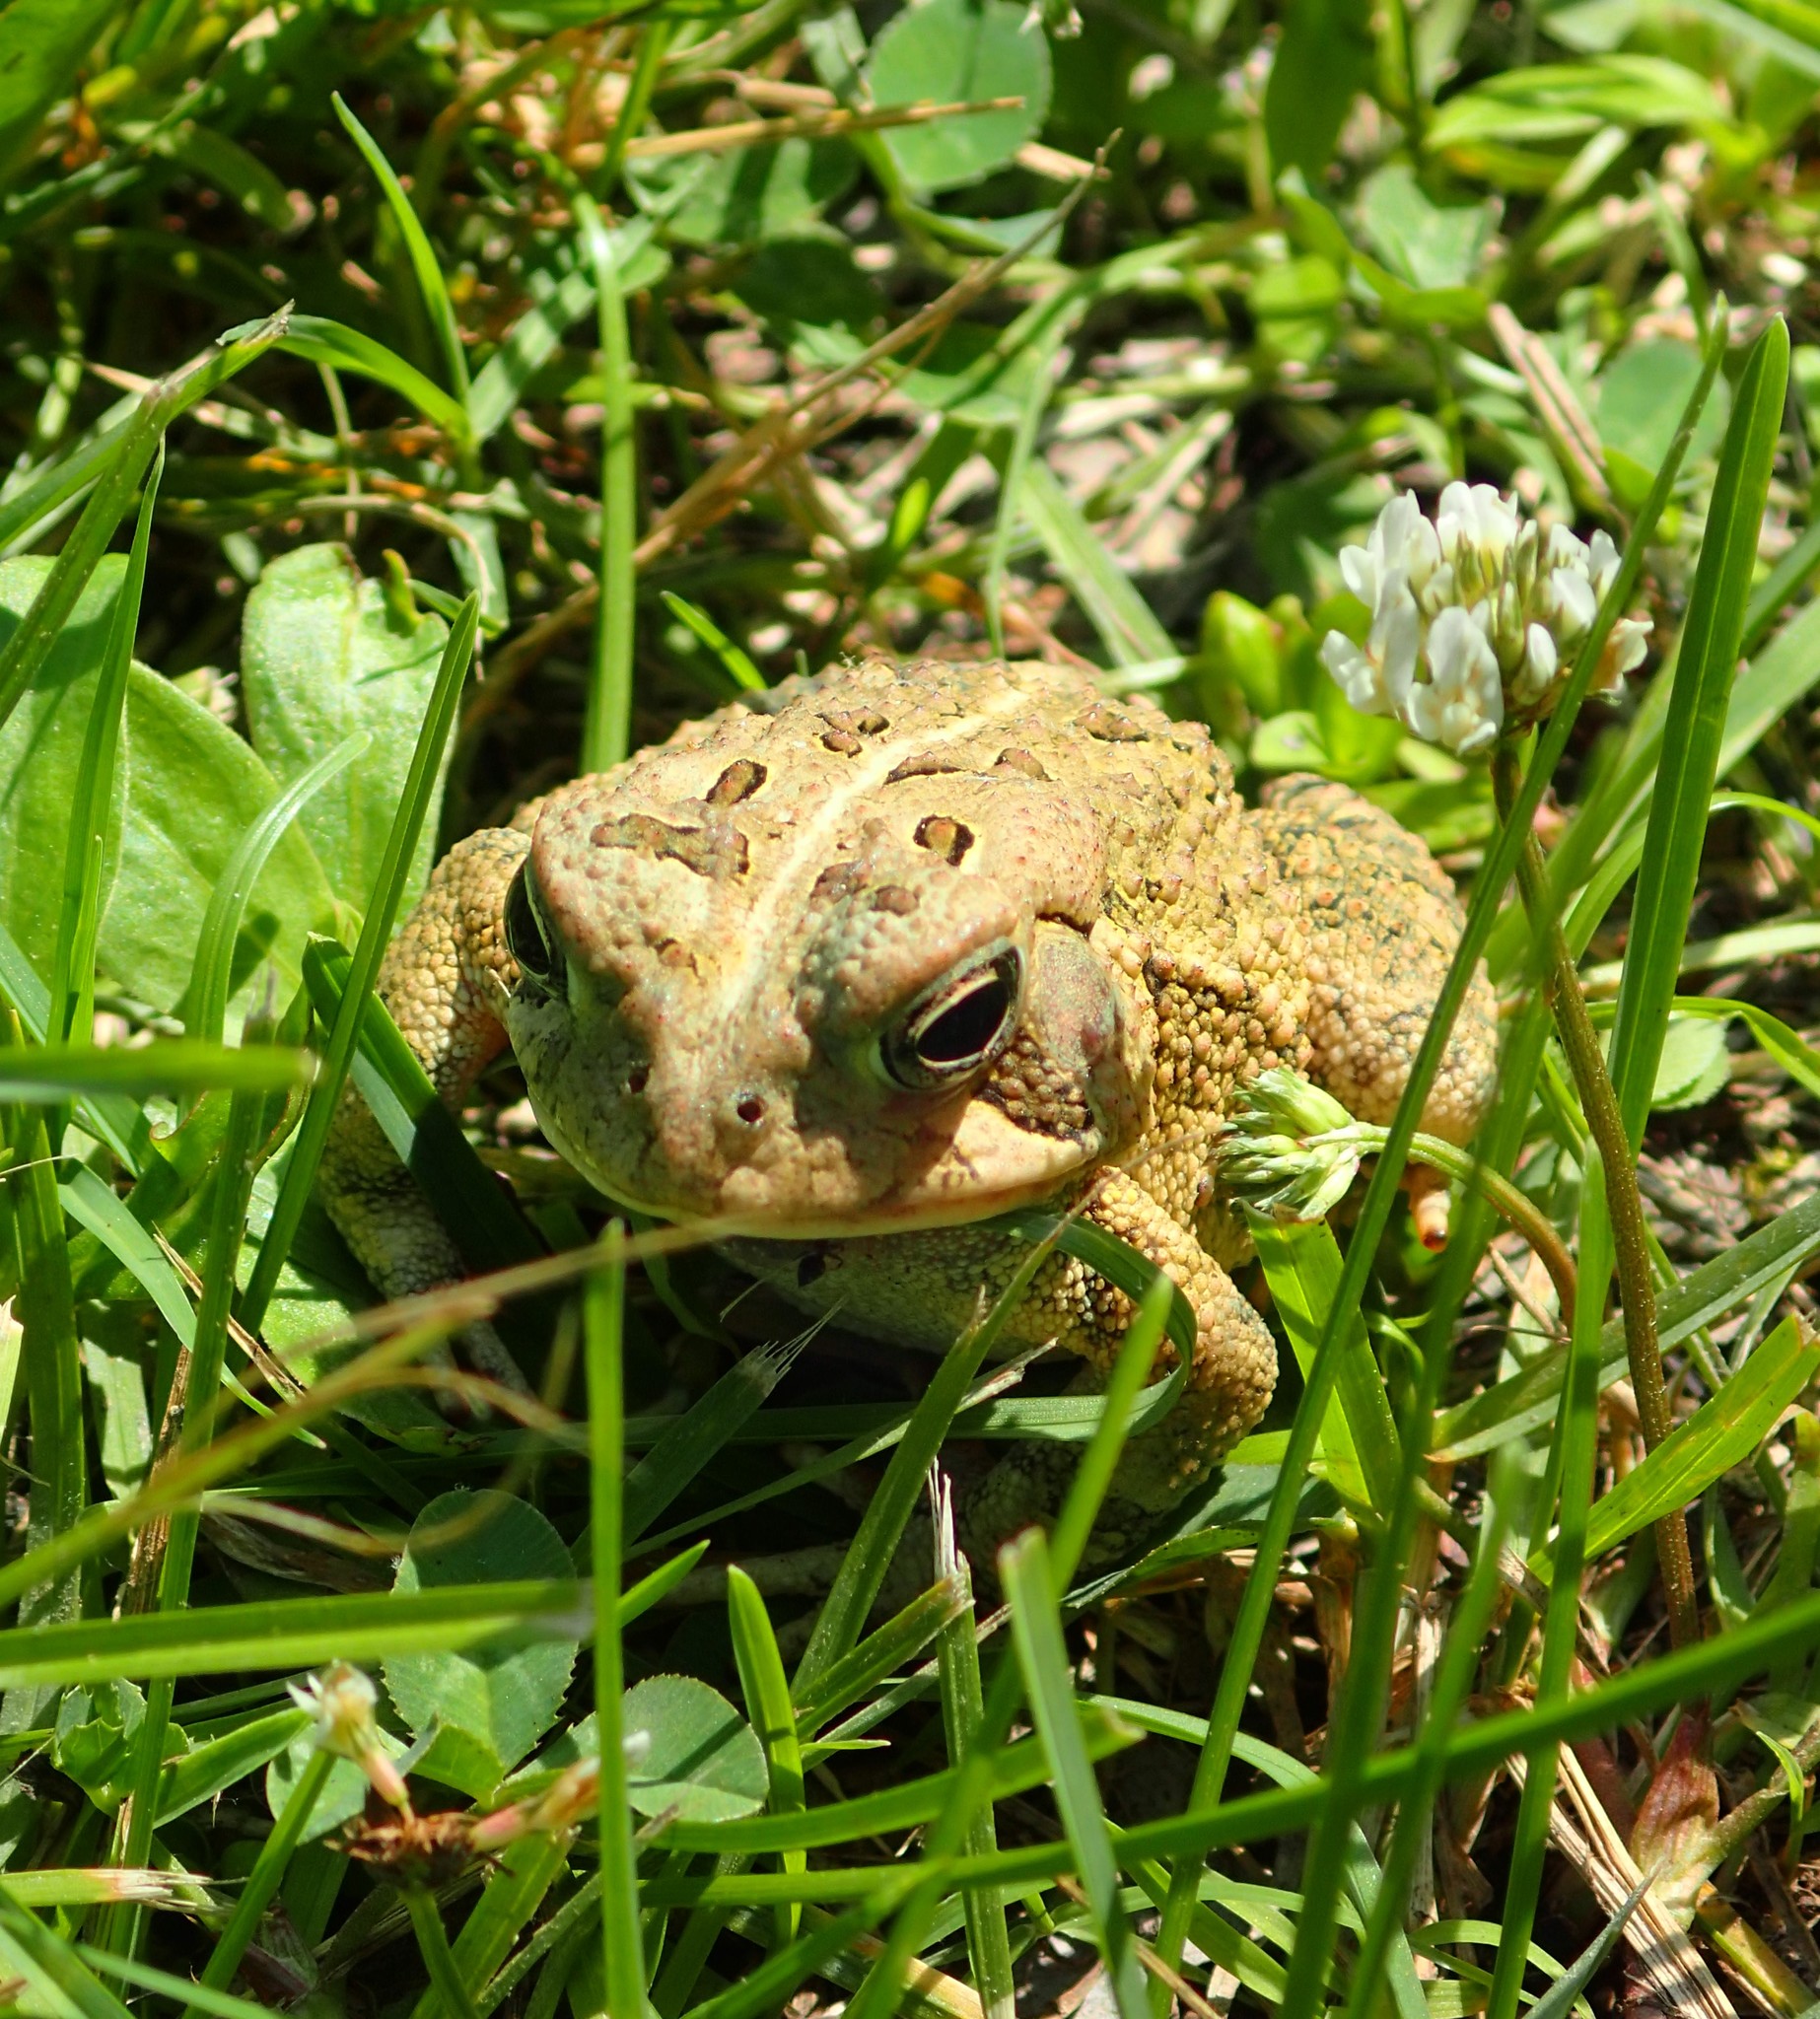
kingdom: Animalia
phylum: Chordata
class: Amphibia
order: Anura
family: Bufonidae
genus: Anaxyrus
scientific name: Anaxyrus fowleri
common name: Fowler's toad
